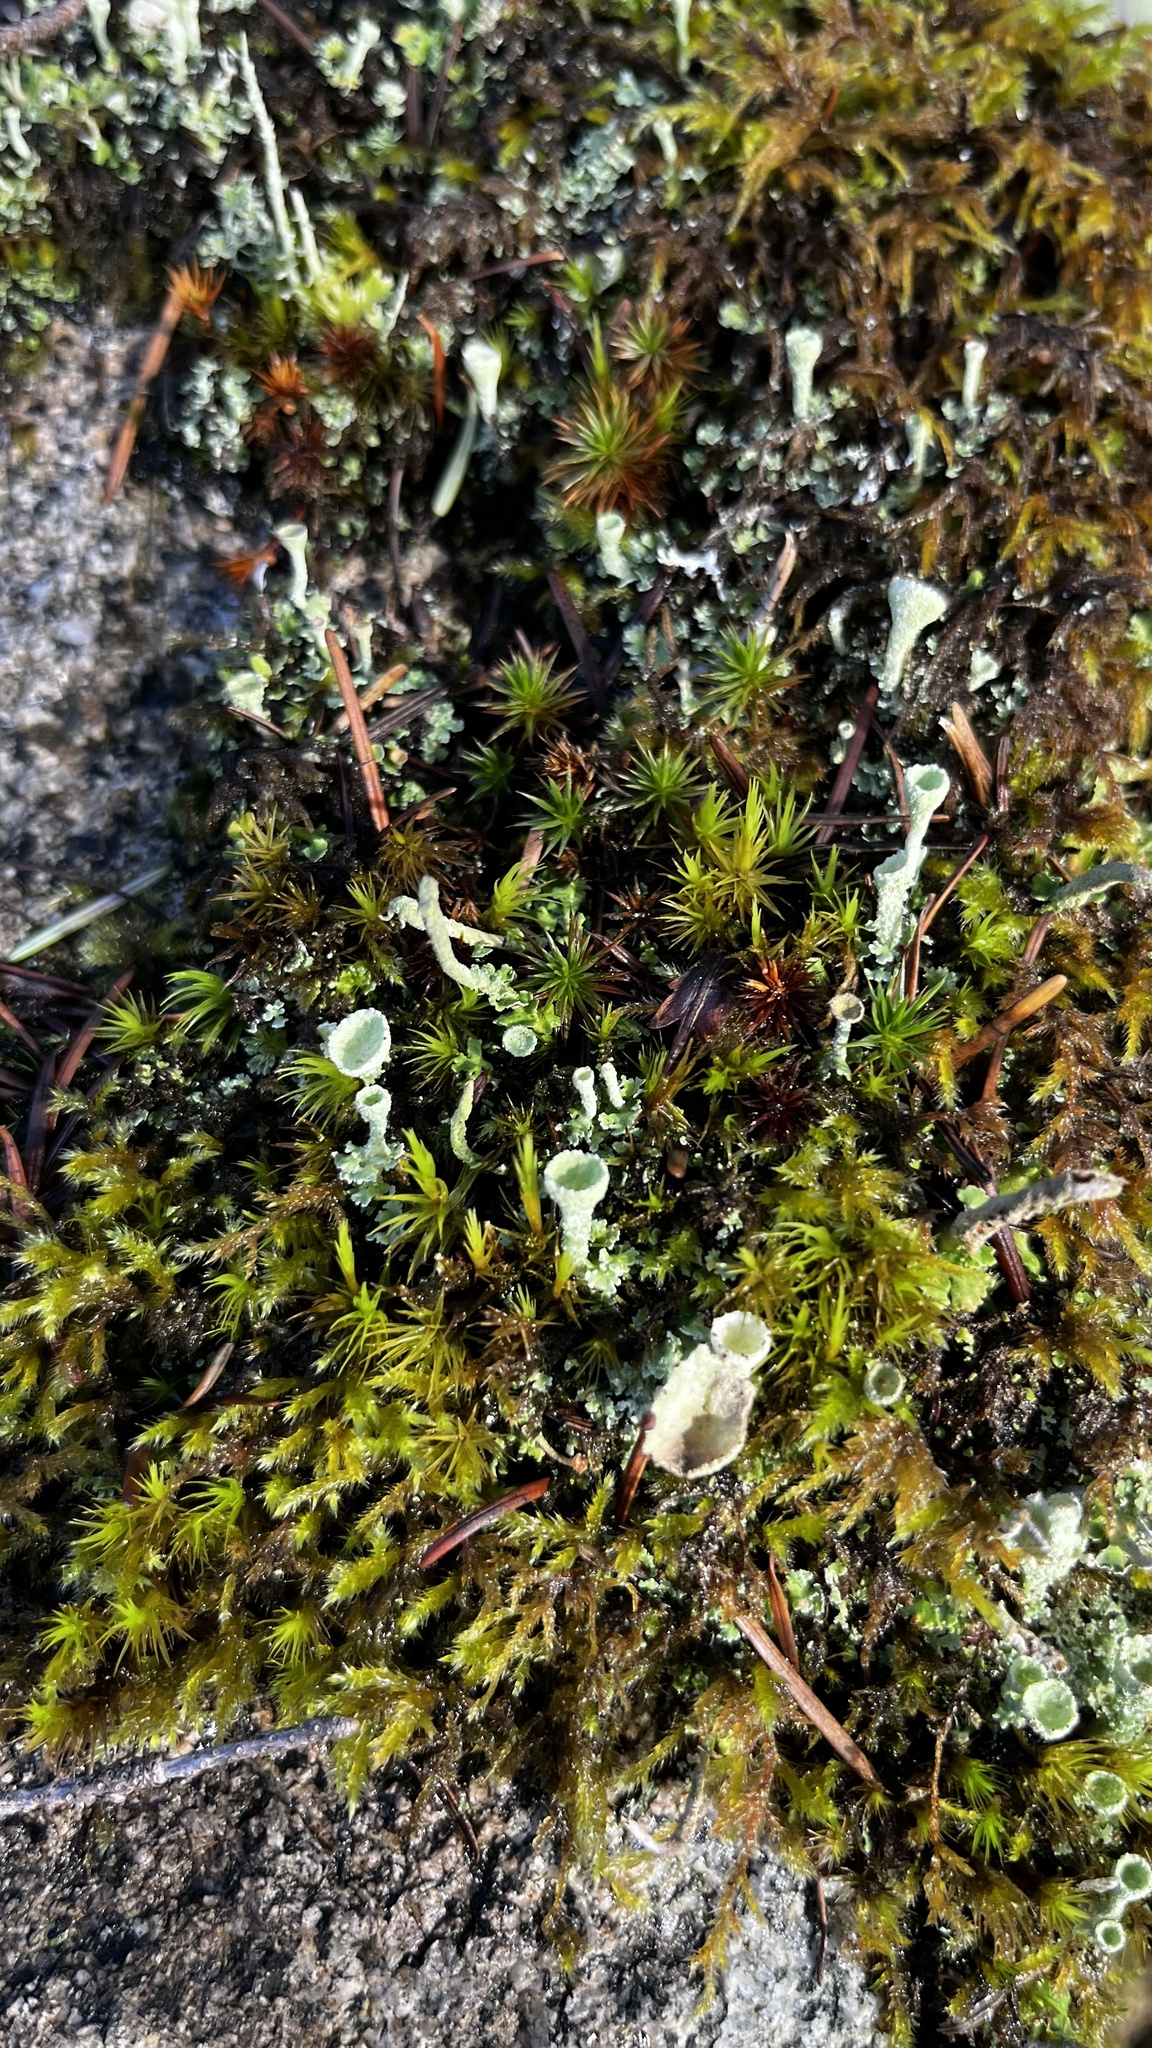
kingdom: Fungi
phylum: Ascomycota
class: Lecanoromycetes
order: Lecanorales
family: Cladoniaceae
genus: Cladonia
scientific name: Cladonia fimbriata
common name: Powdered trumpet lichen
